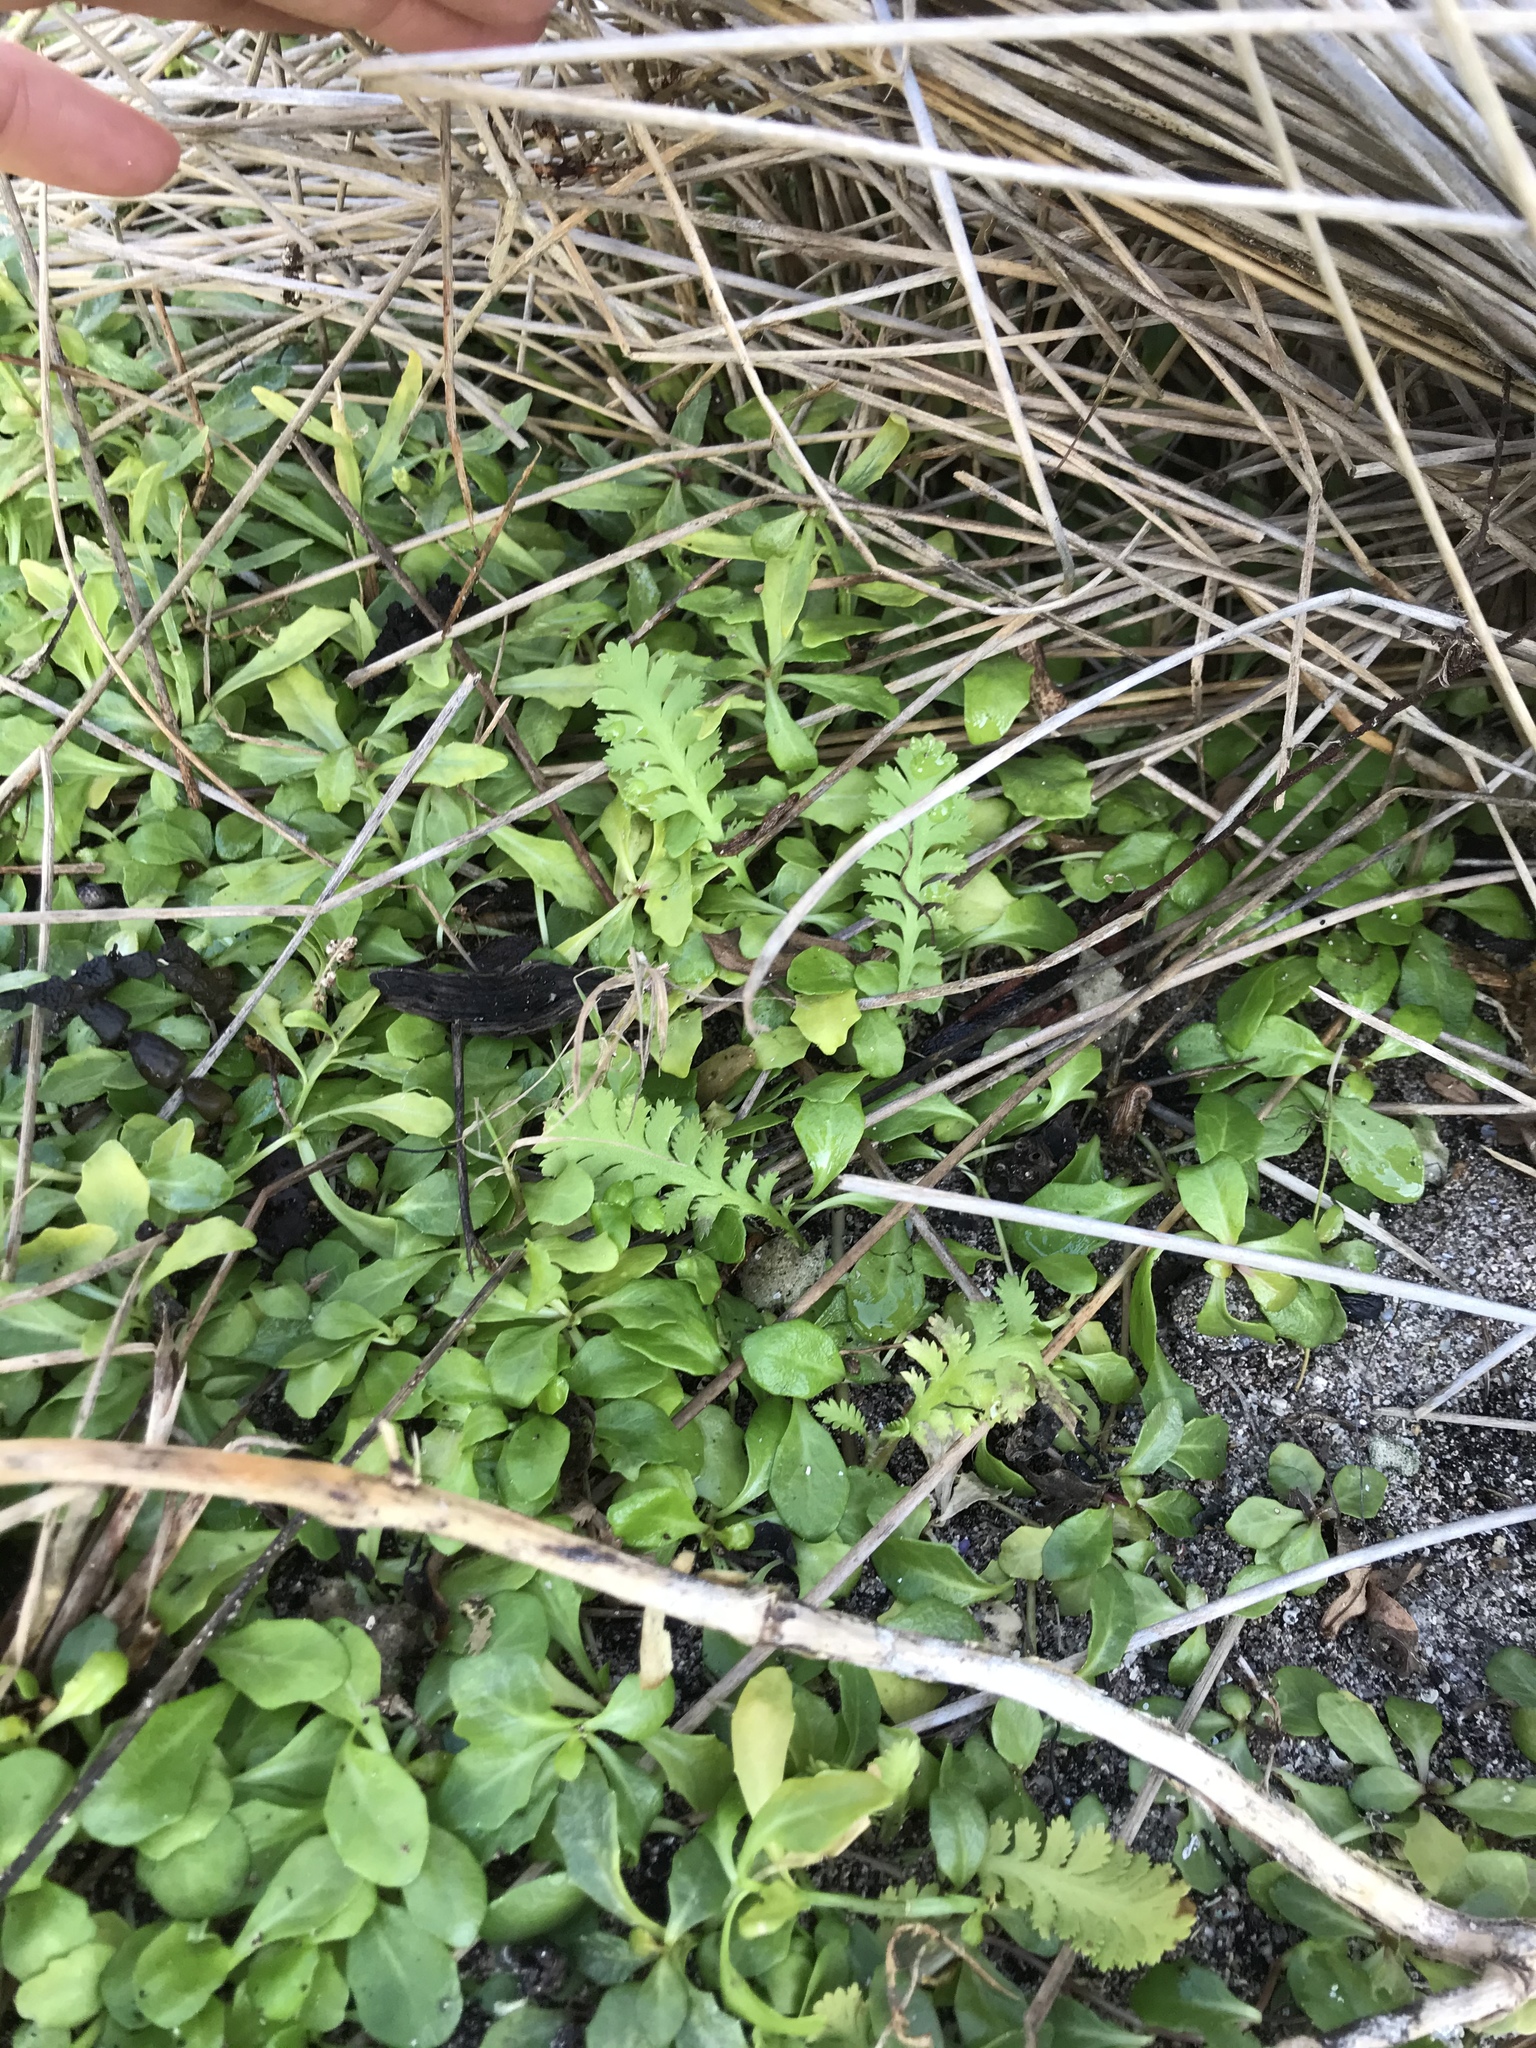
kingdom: Plantae
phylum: Tracheophyta
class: Magnoliopsida
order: Asterales
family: Asteraceae
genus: Leptinella
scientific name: Leptinella potentillina
